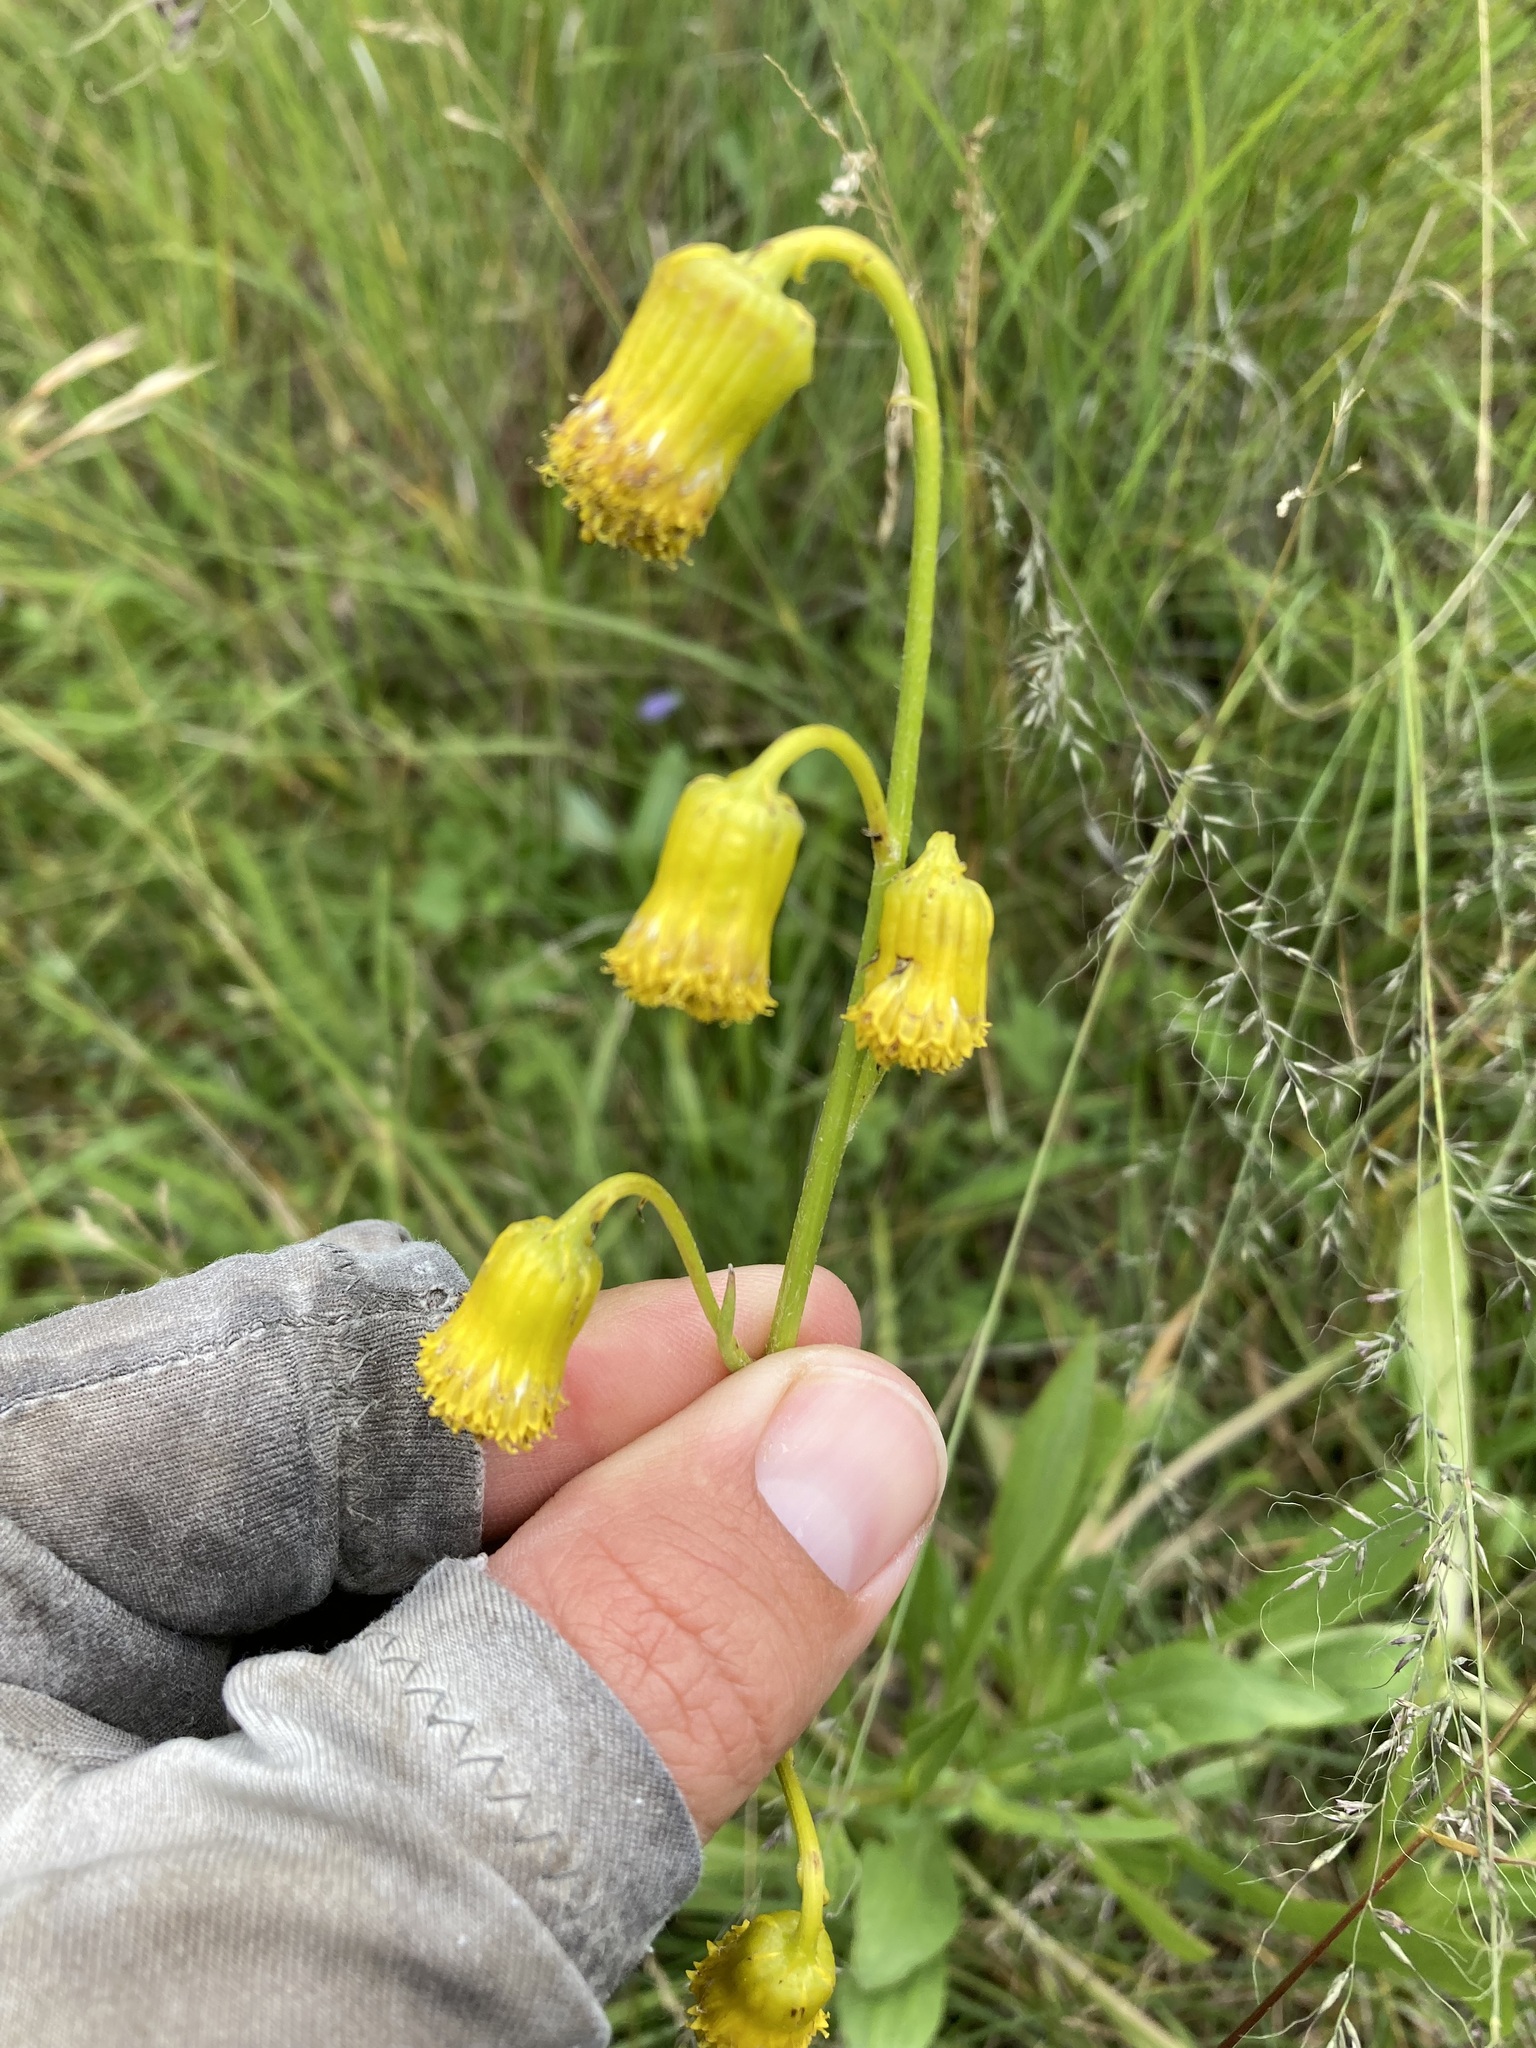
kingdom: Plantae
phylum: Tracheophyta
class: Magnoliopsida
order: Asterales
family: Asteraceae
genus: Senecio
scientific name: Senecio bigelovii
